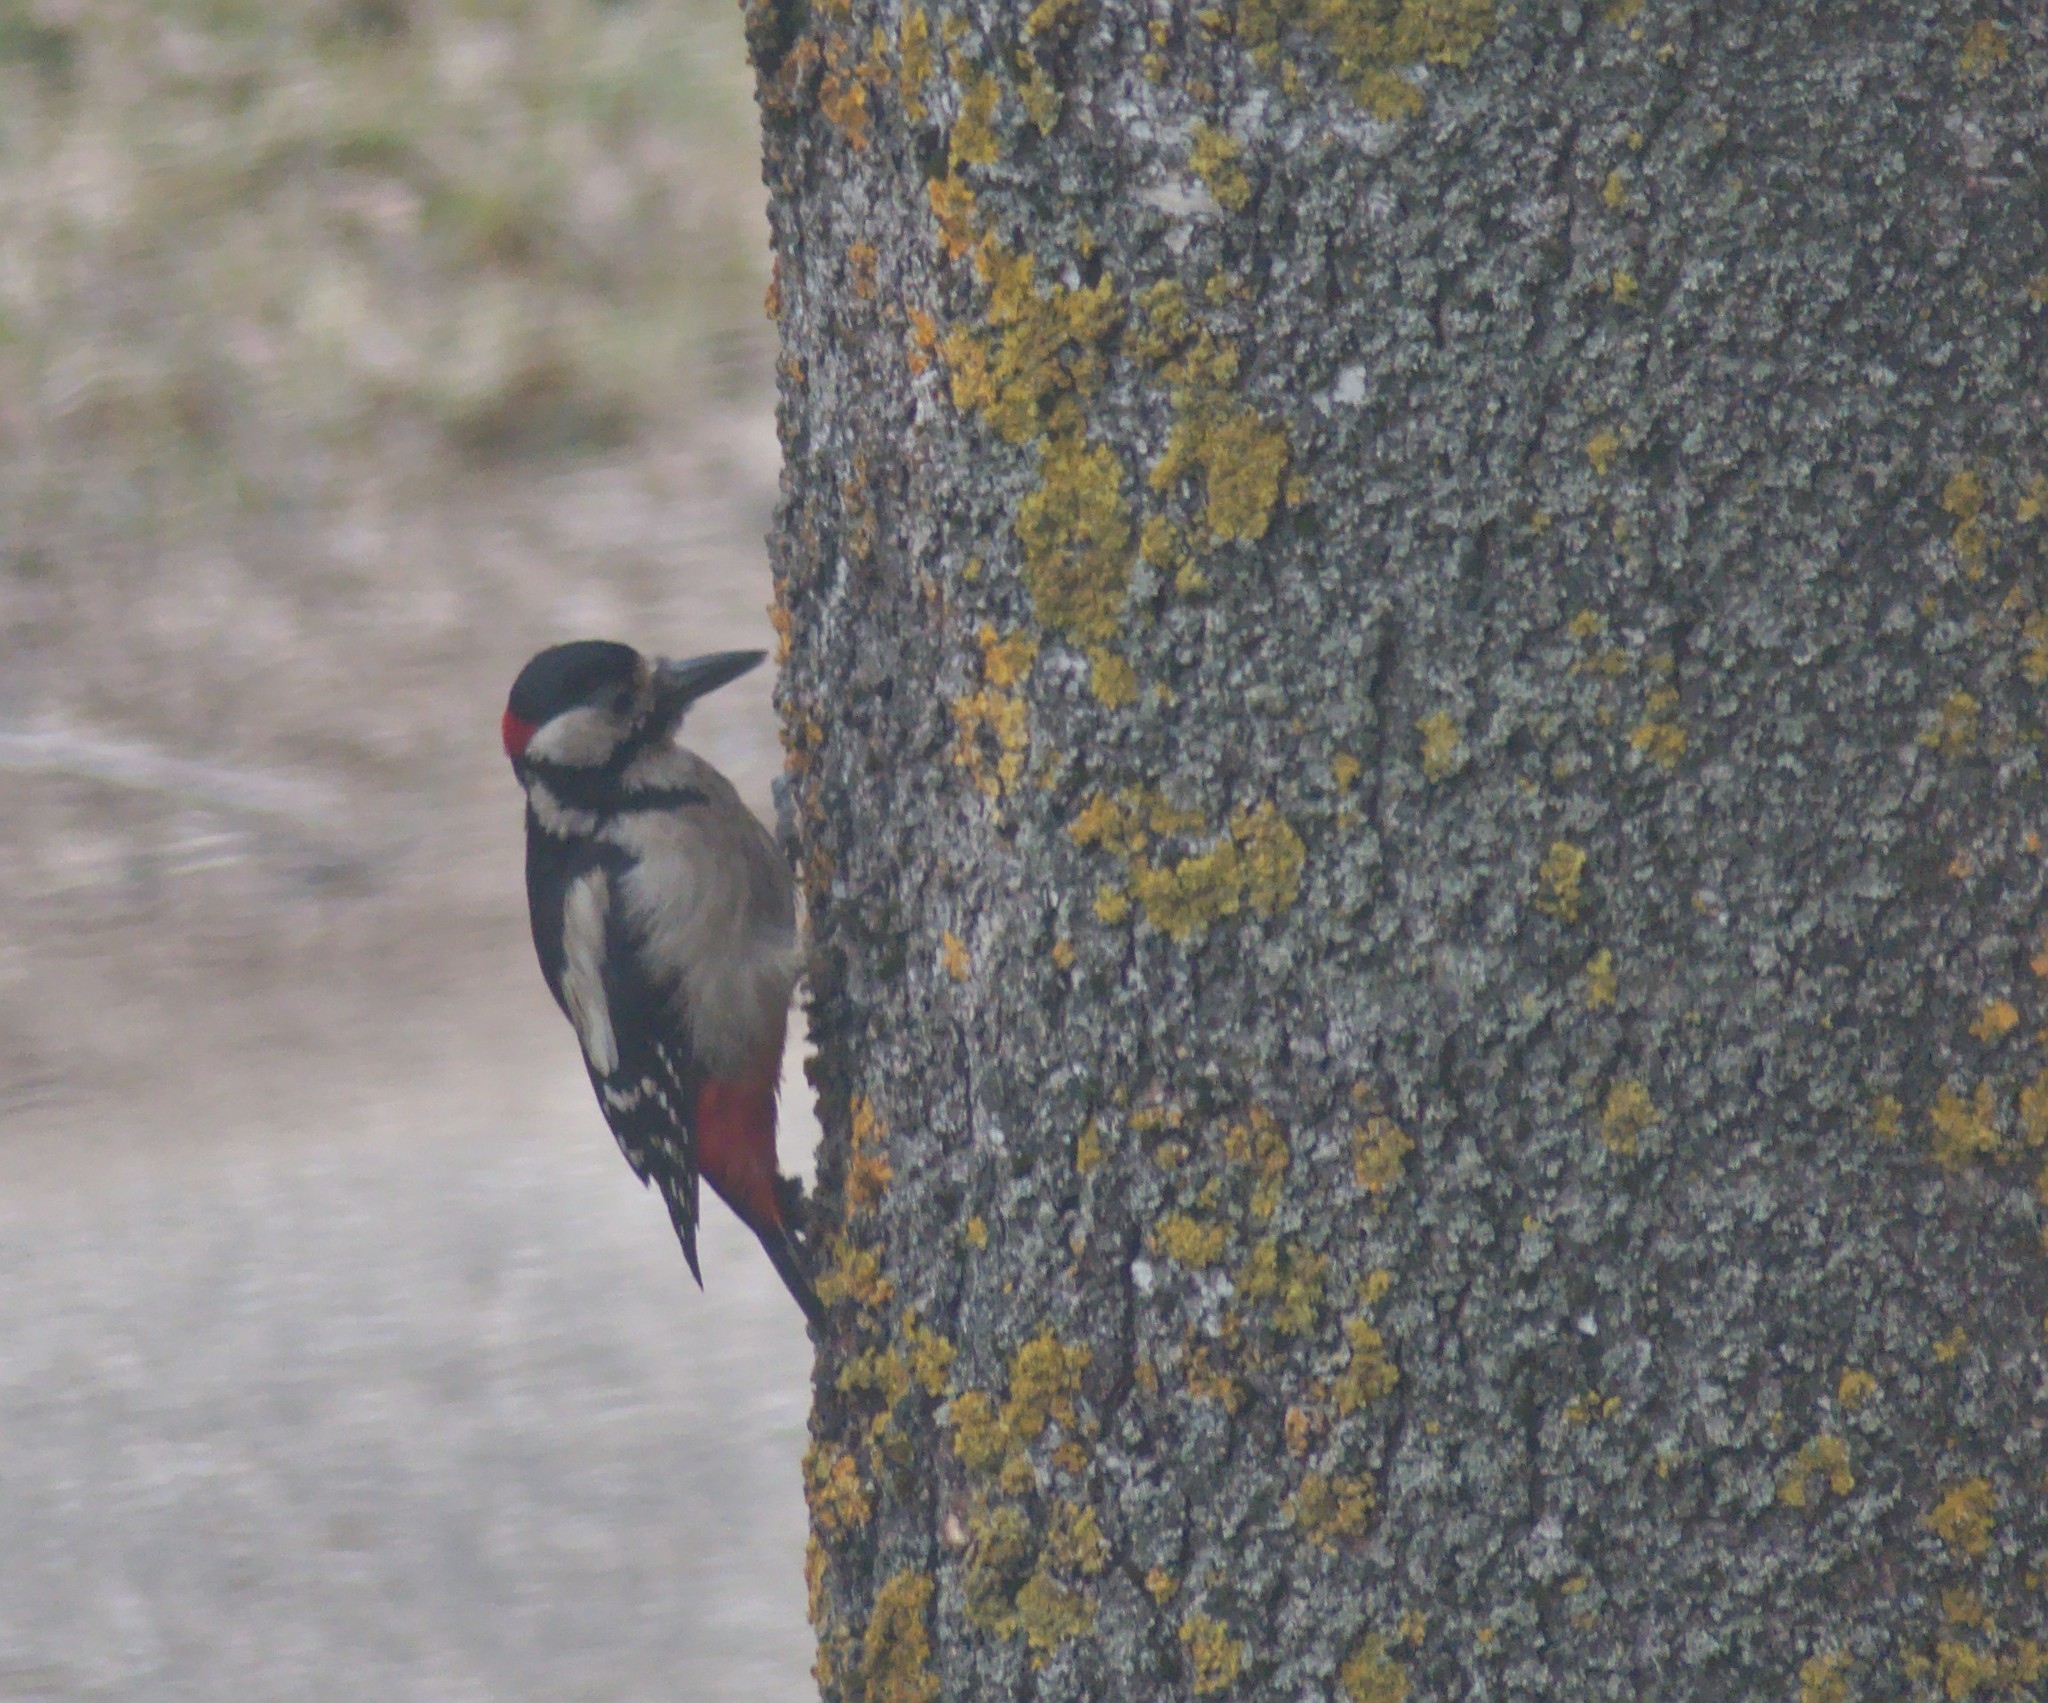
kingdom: Animalia
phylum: Chordata
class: Aves
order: Piciformes
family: Picidae
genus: Dendrocopos
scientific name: Dendrocopos major
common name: Great spotted woodpecker
